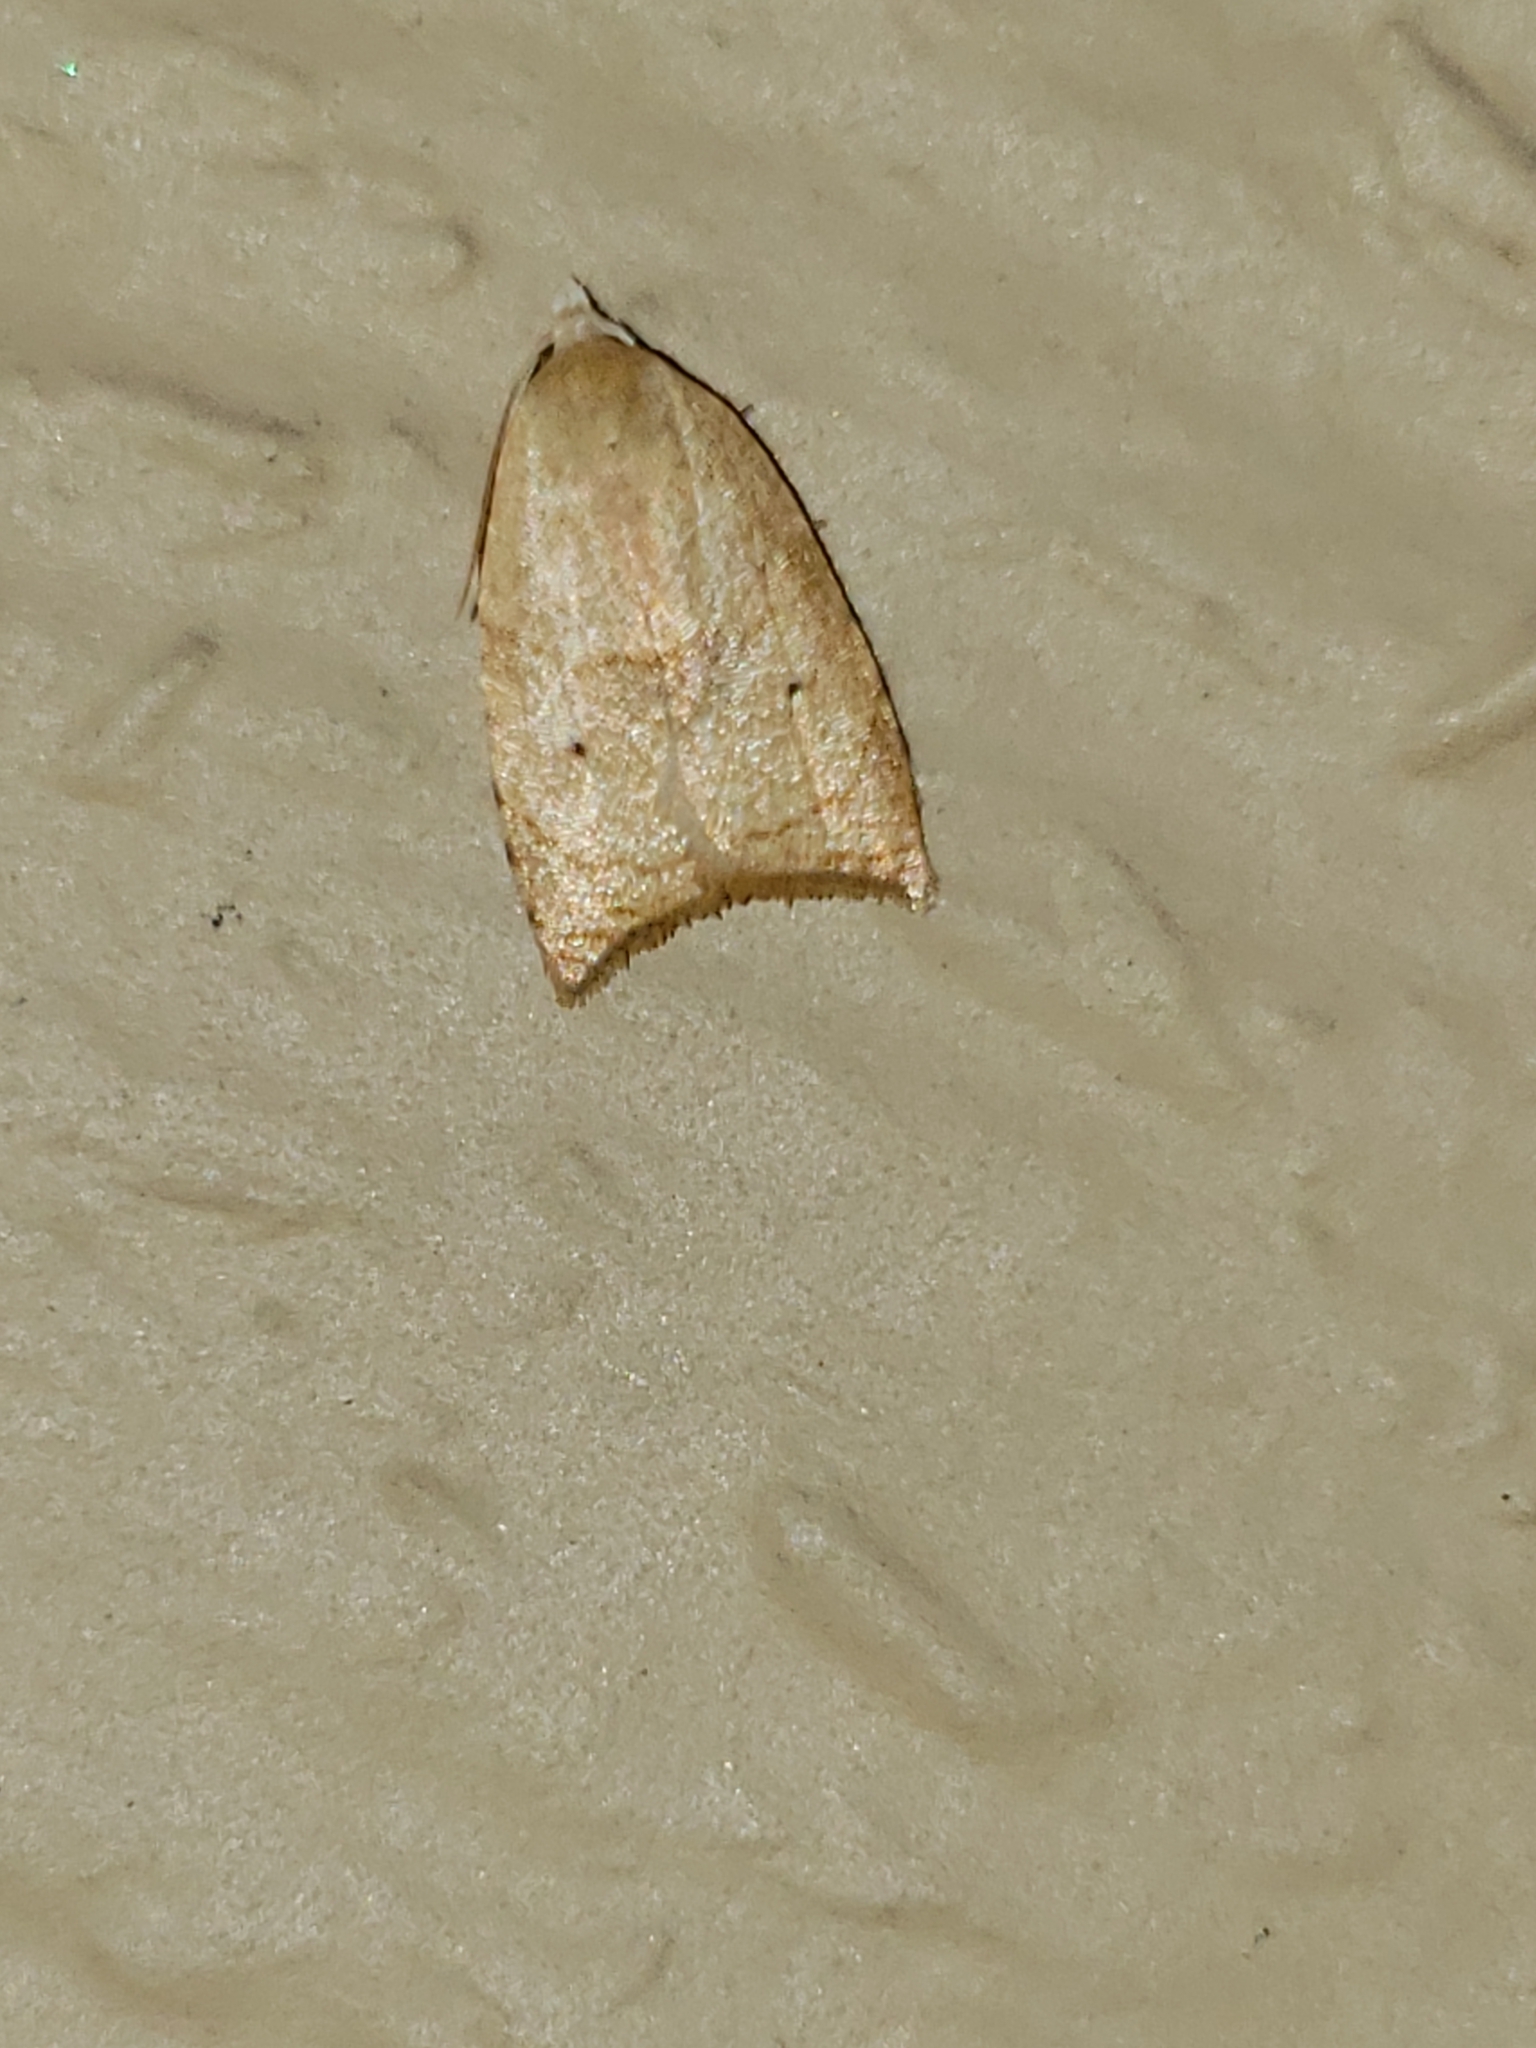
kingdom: Animalia
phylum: Arthropoda
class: Insecta
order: Lepidoptera
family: Tortricidae
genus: Coelostathma
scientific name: Coelostathma discopunctana
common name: Batman moth
